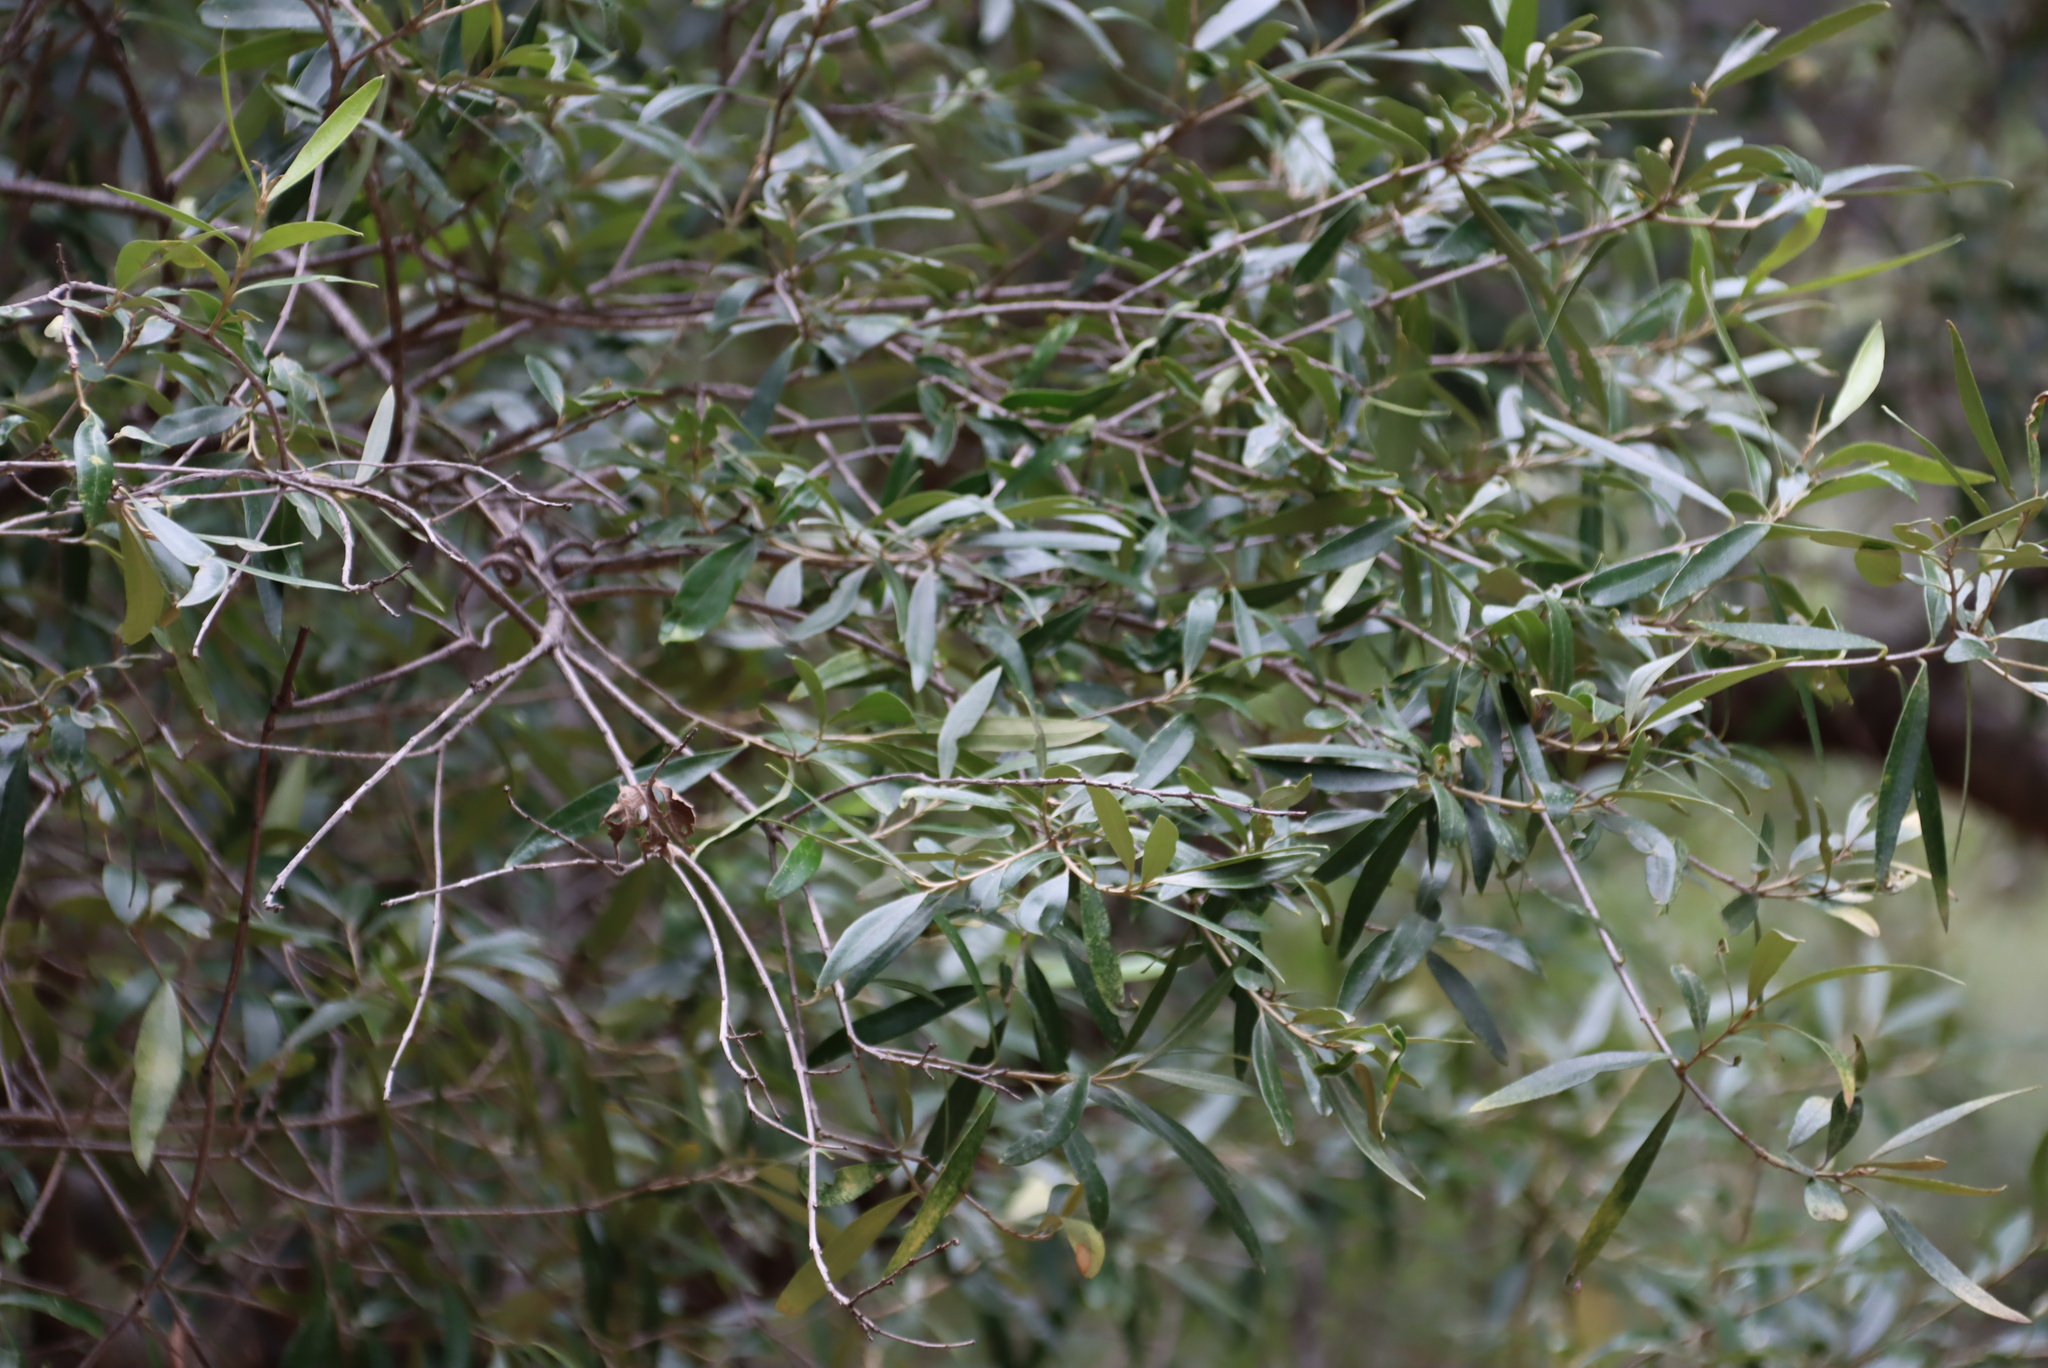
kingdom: Plantae
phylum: Tracheophyta
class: Magnoliopsida
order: Lamiales
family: Oleaceae
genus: Olea
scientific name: Olea europaea
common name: Olive
